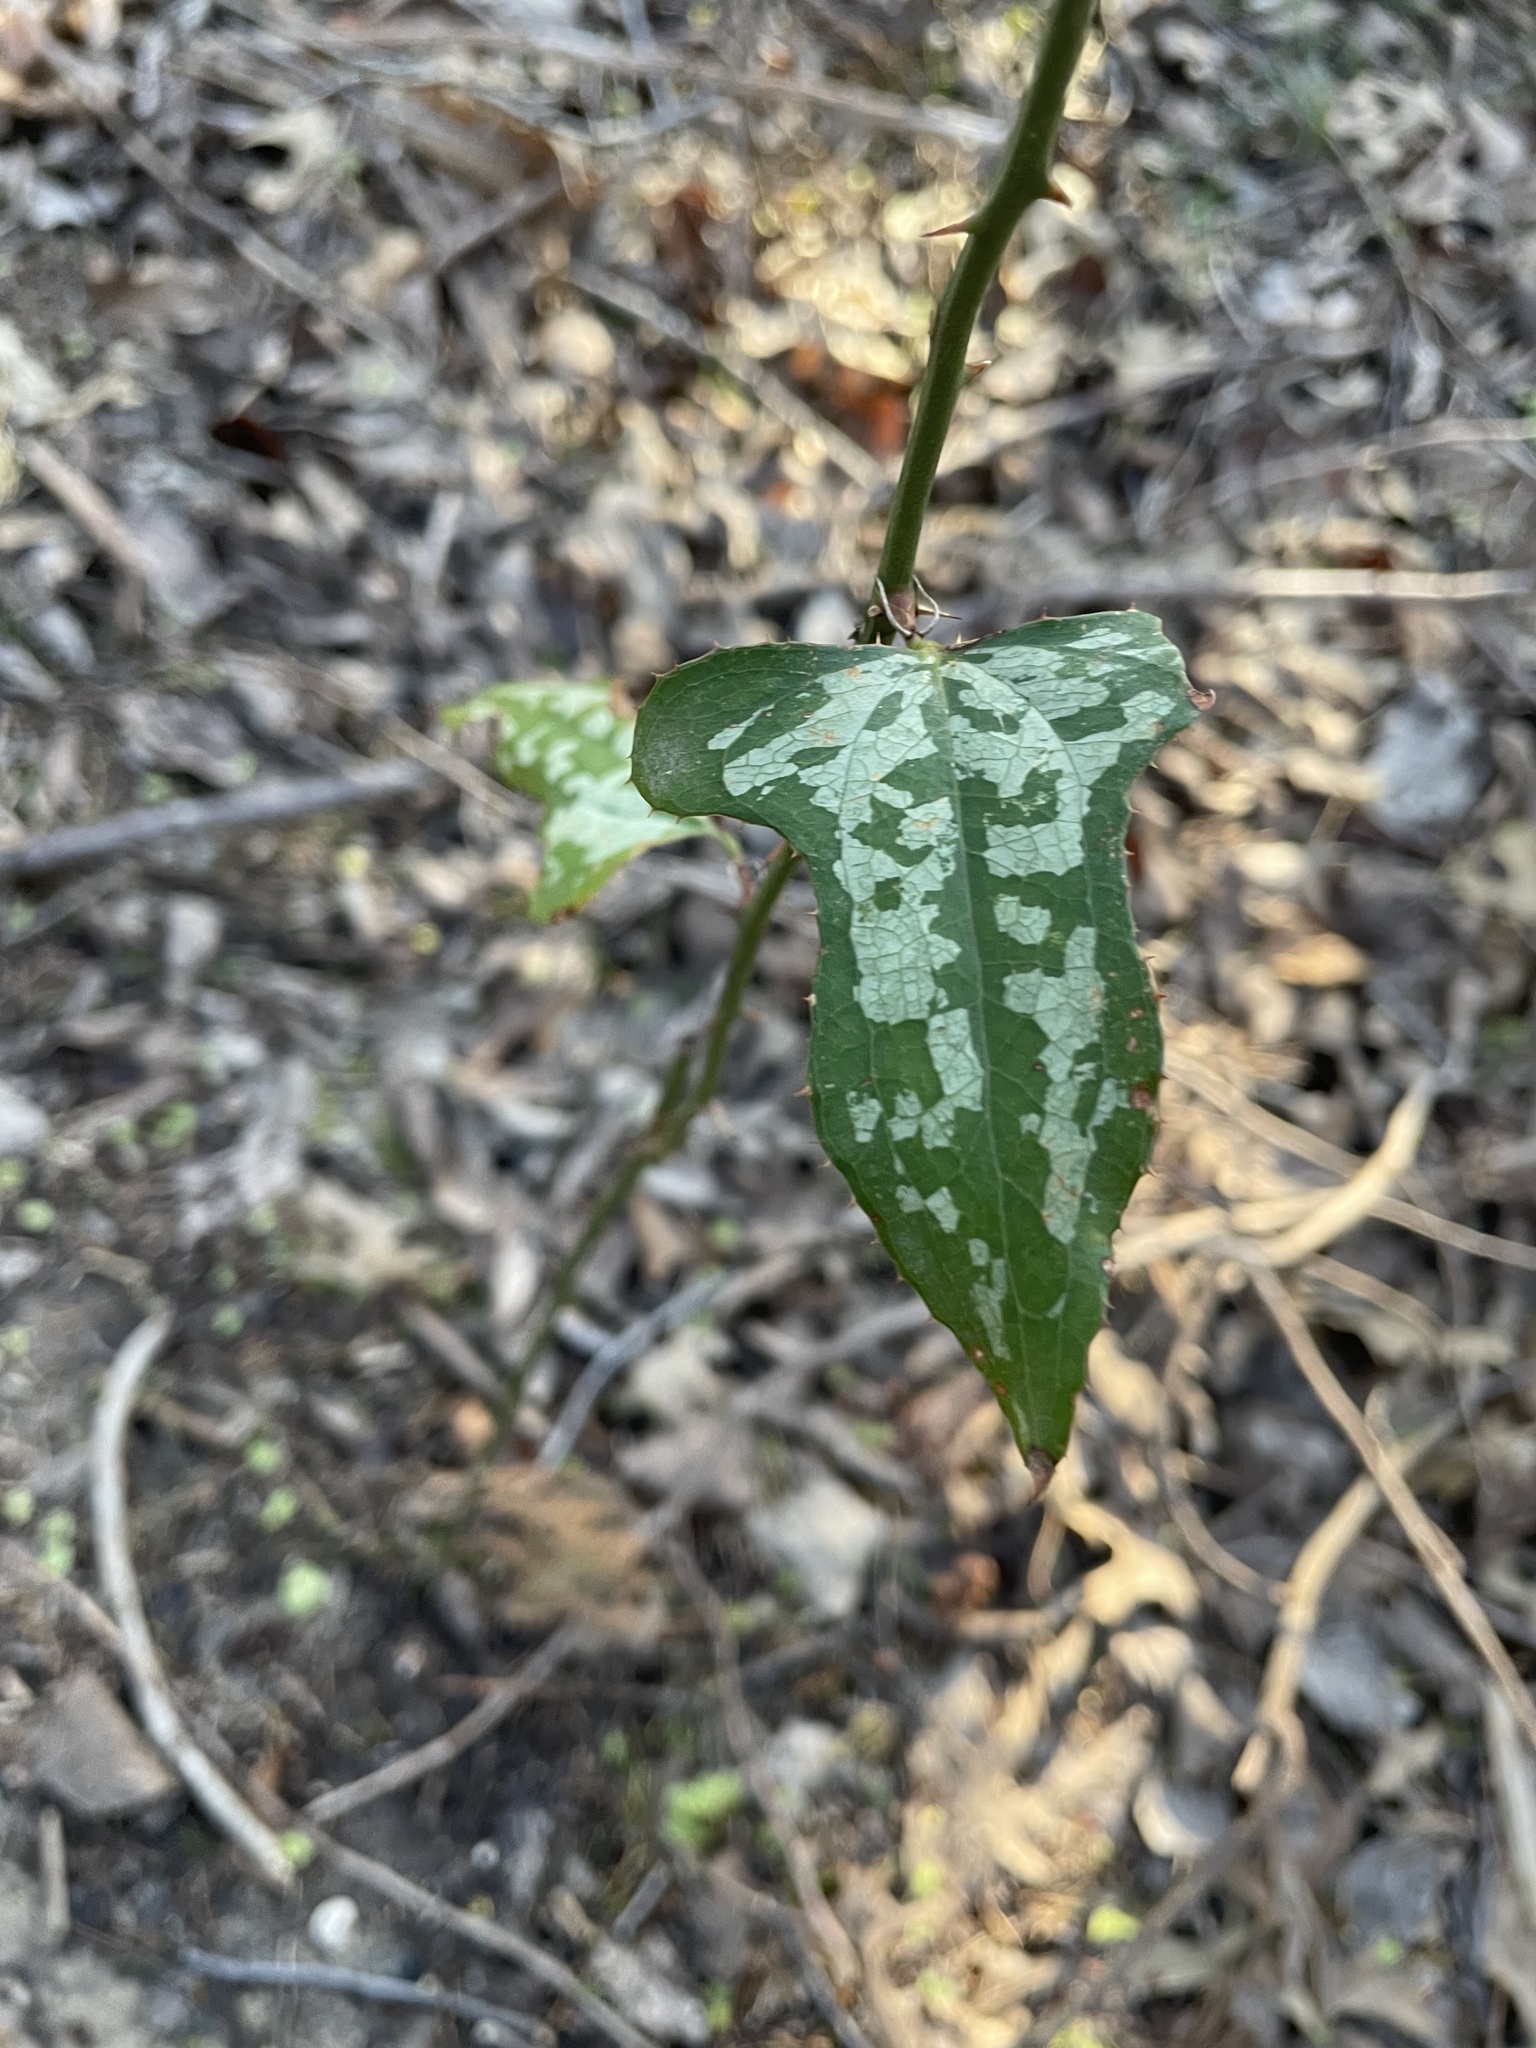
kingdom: Plantae
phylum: Tracheophyta
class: Liliopsida
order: Liliales
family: Smilacaceae
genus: Smilax
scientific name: Smilax bona-nox
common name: Catbrier
